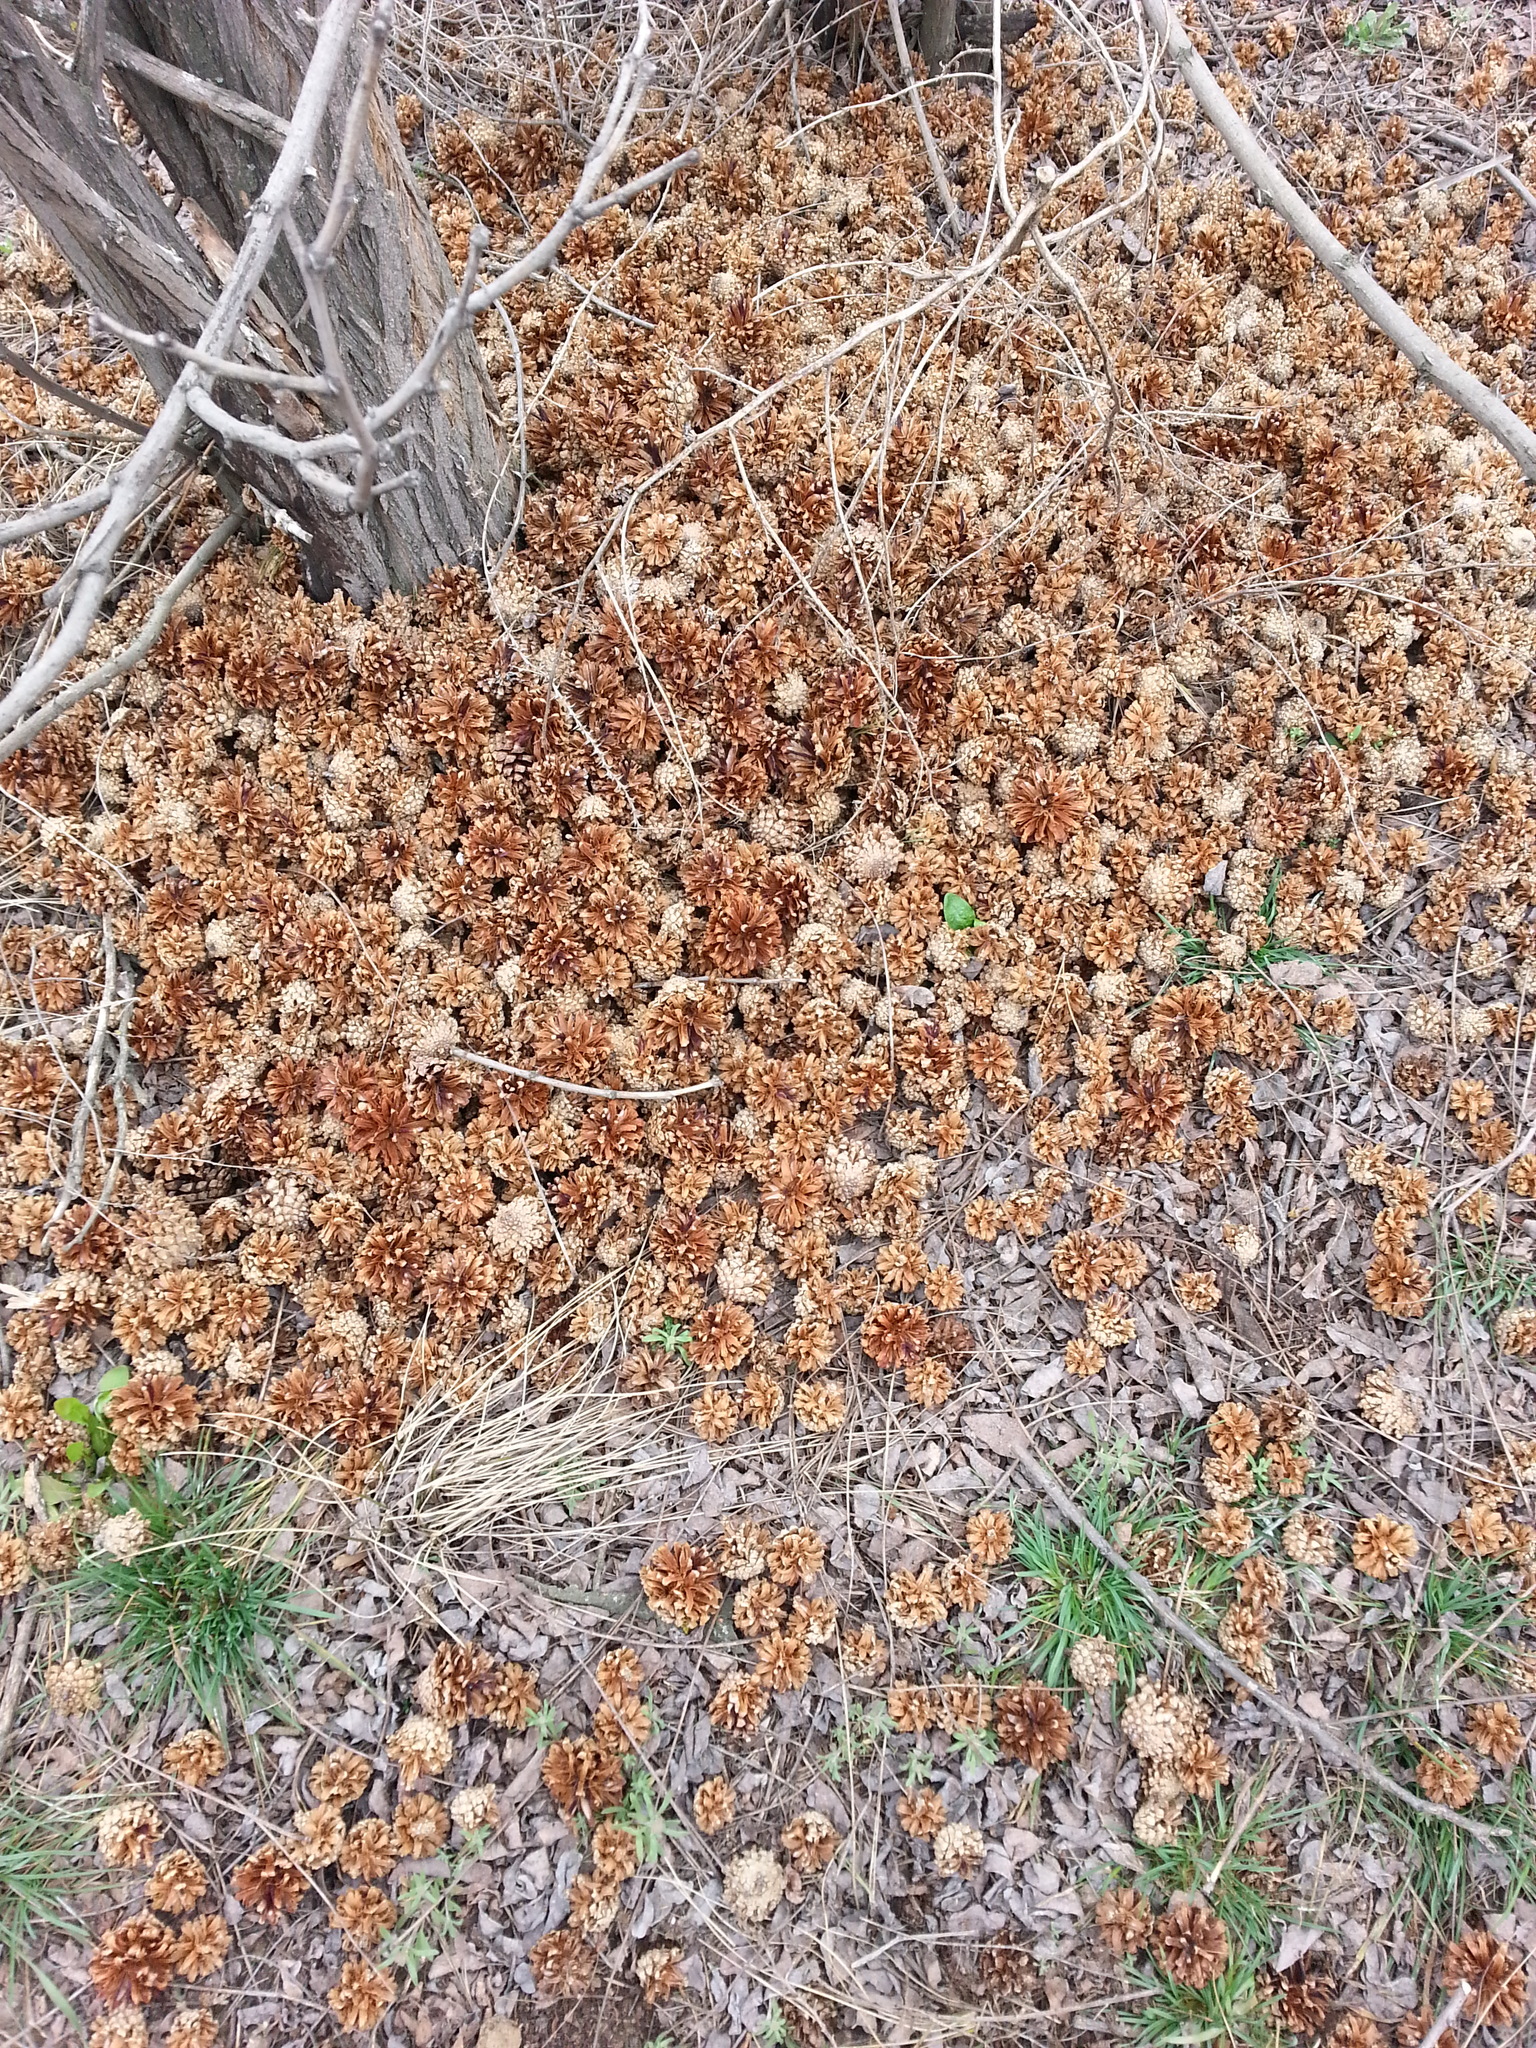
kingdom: Animalia
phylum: Chordata
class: Aves
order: Piciformes
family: Picidae
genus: Dendrocopos
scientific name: Dendrocopos major
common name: Great spotted woodpecker
